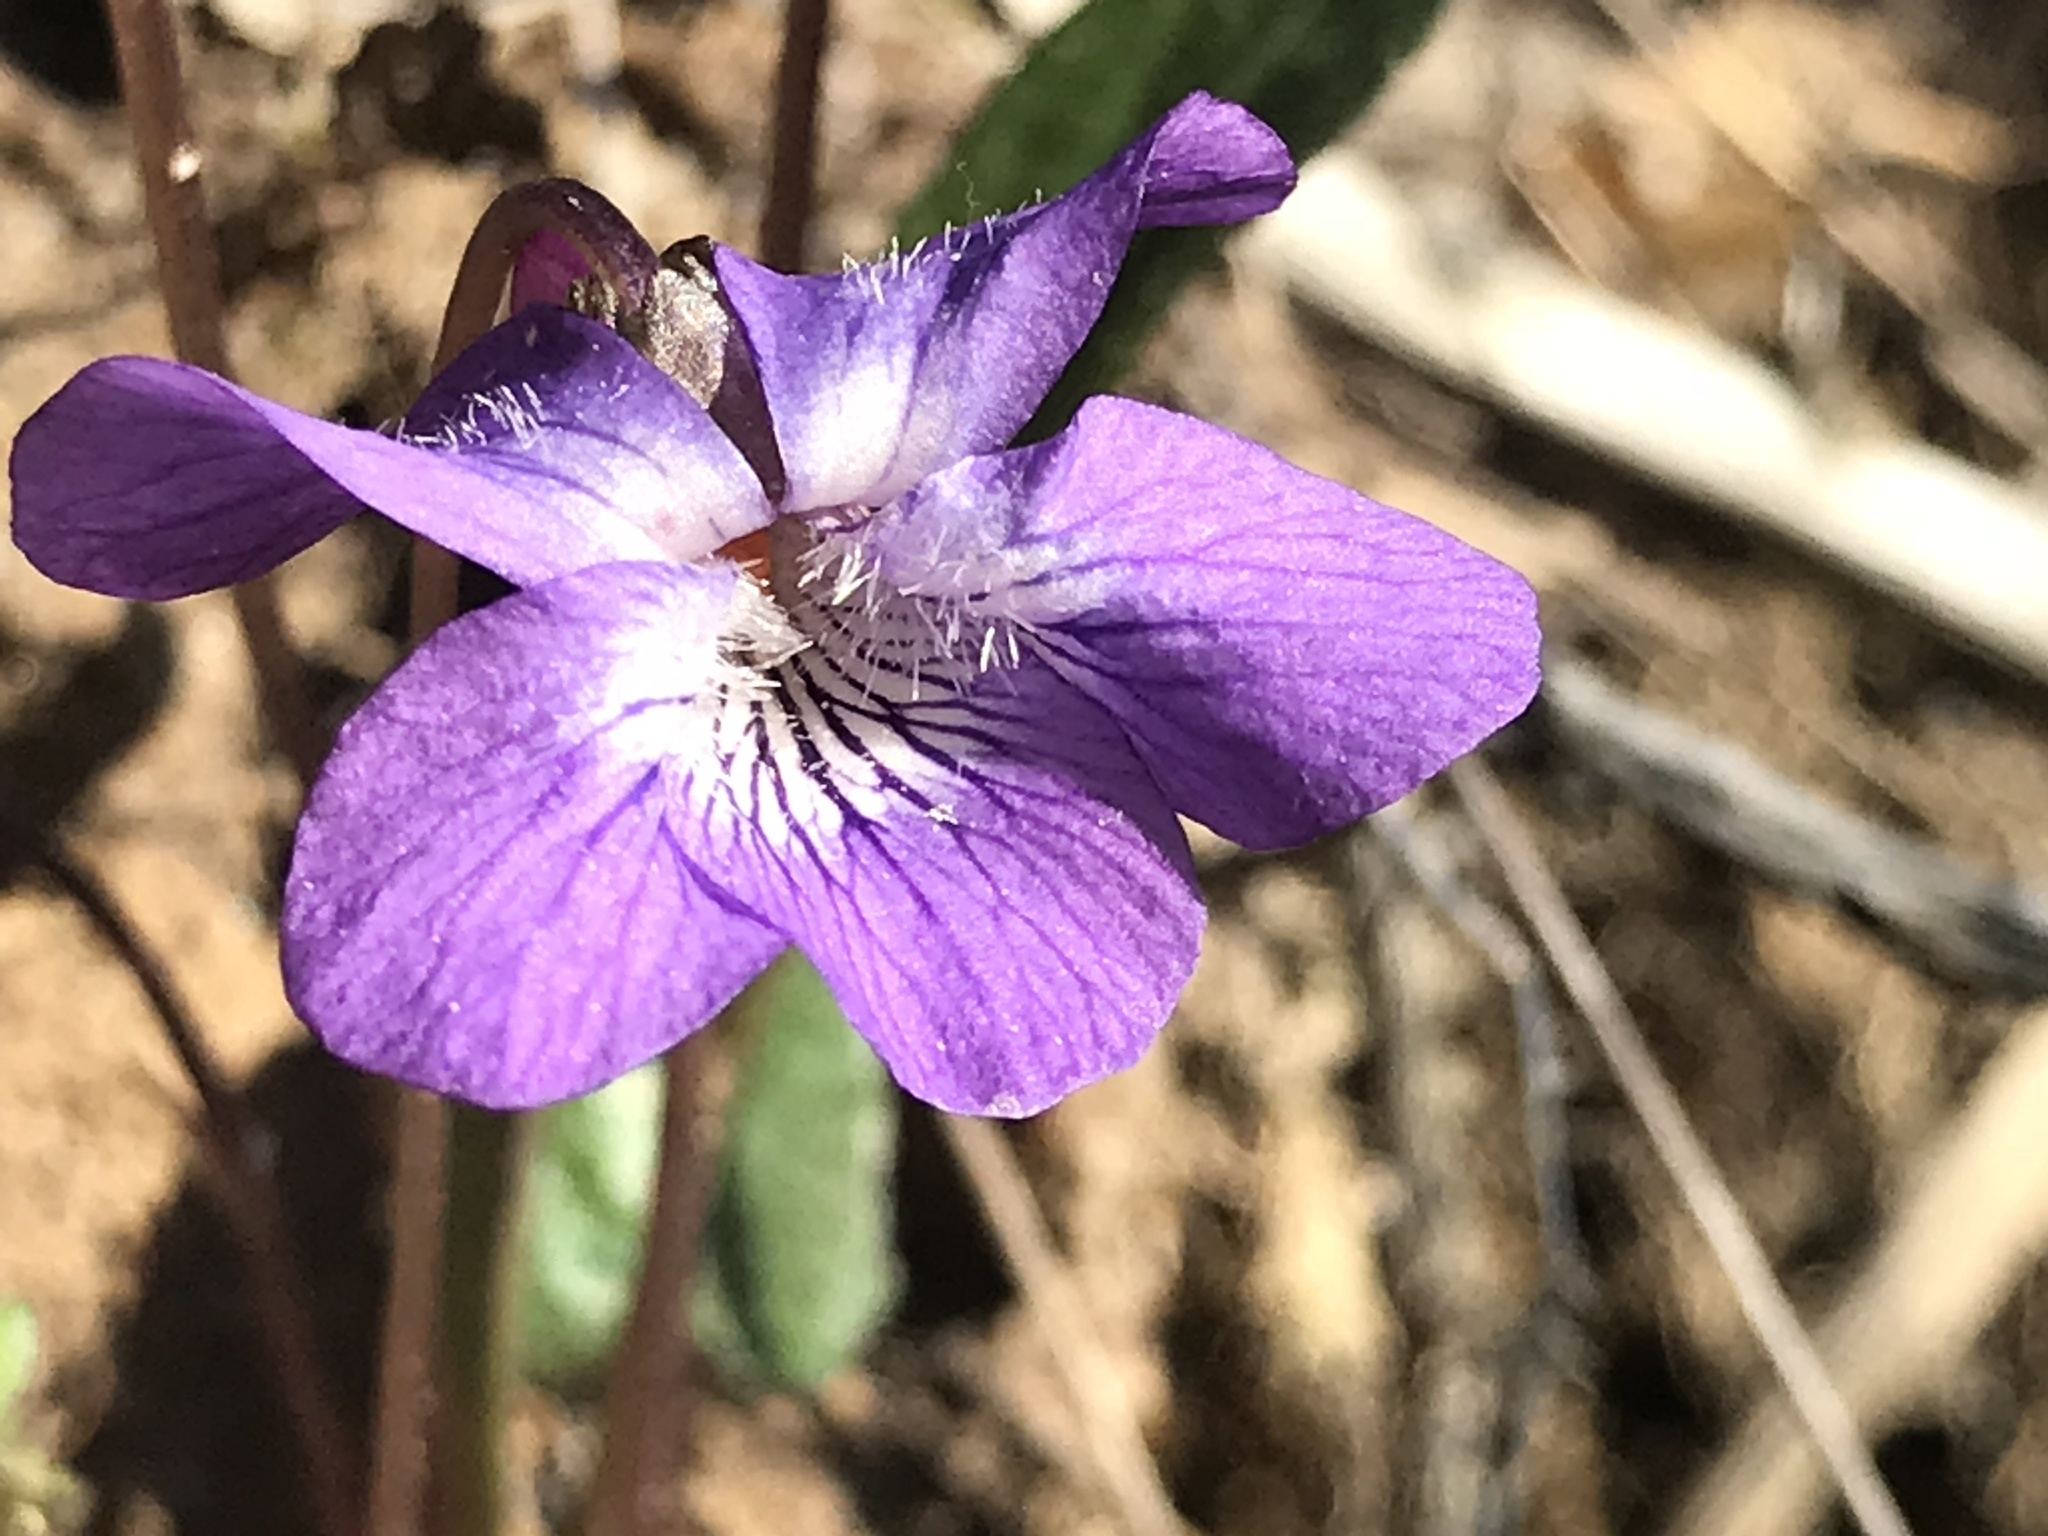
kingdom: Plantae
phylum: Tracheophyta
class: Magnoliopsida
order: Malpighiales
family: Violaceae
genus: Viola
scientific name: Viola sagittata
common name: Arrowhead violet
